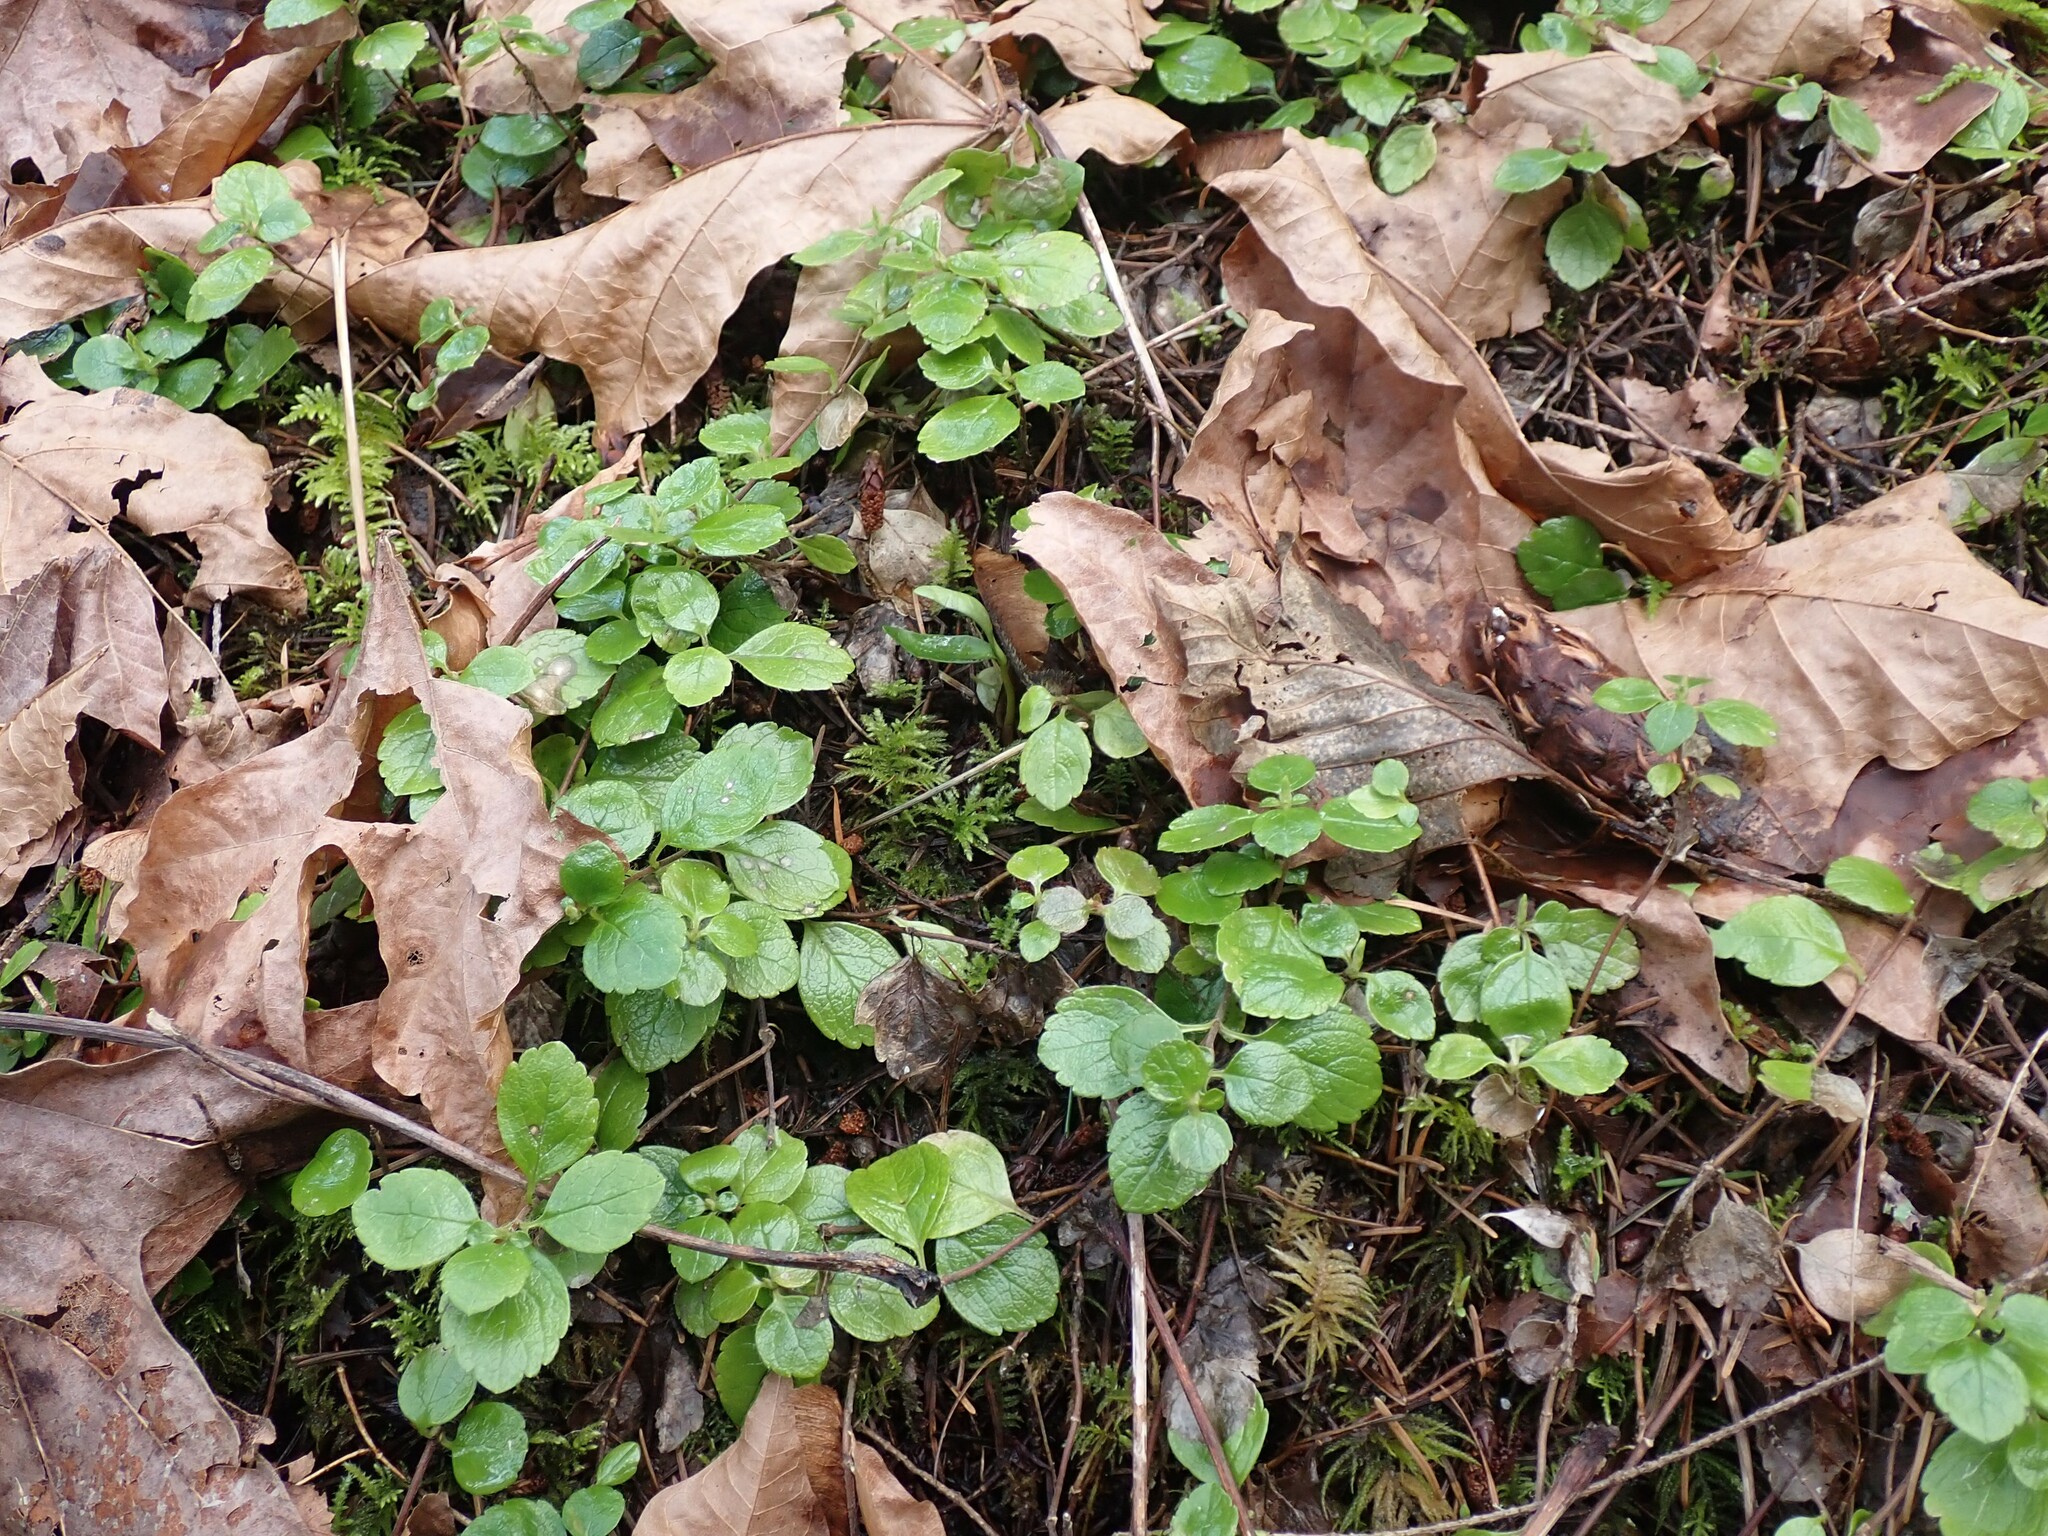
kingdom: Plantae
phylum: Tracheophyta
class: Magnoliopsida
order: Dipsacales
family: Caprifoliaceae
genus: Linnaea
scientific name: Linnaea borealis
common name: Twinflower
